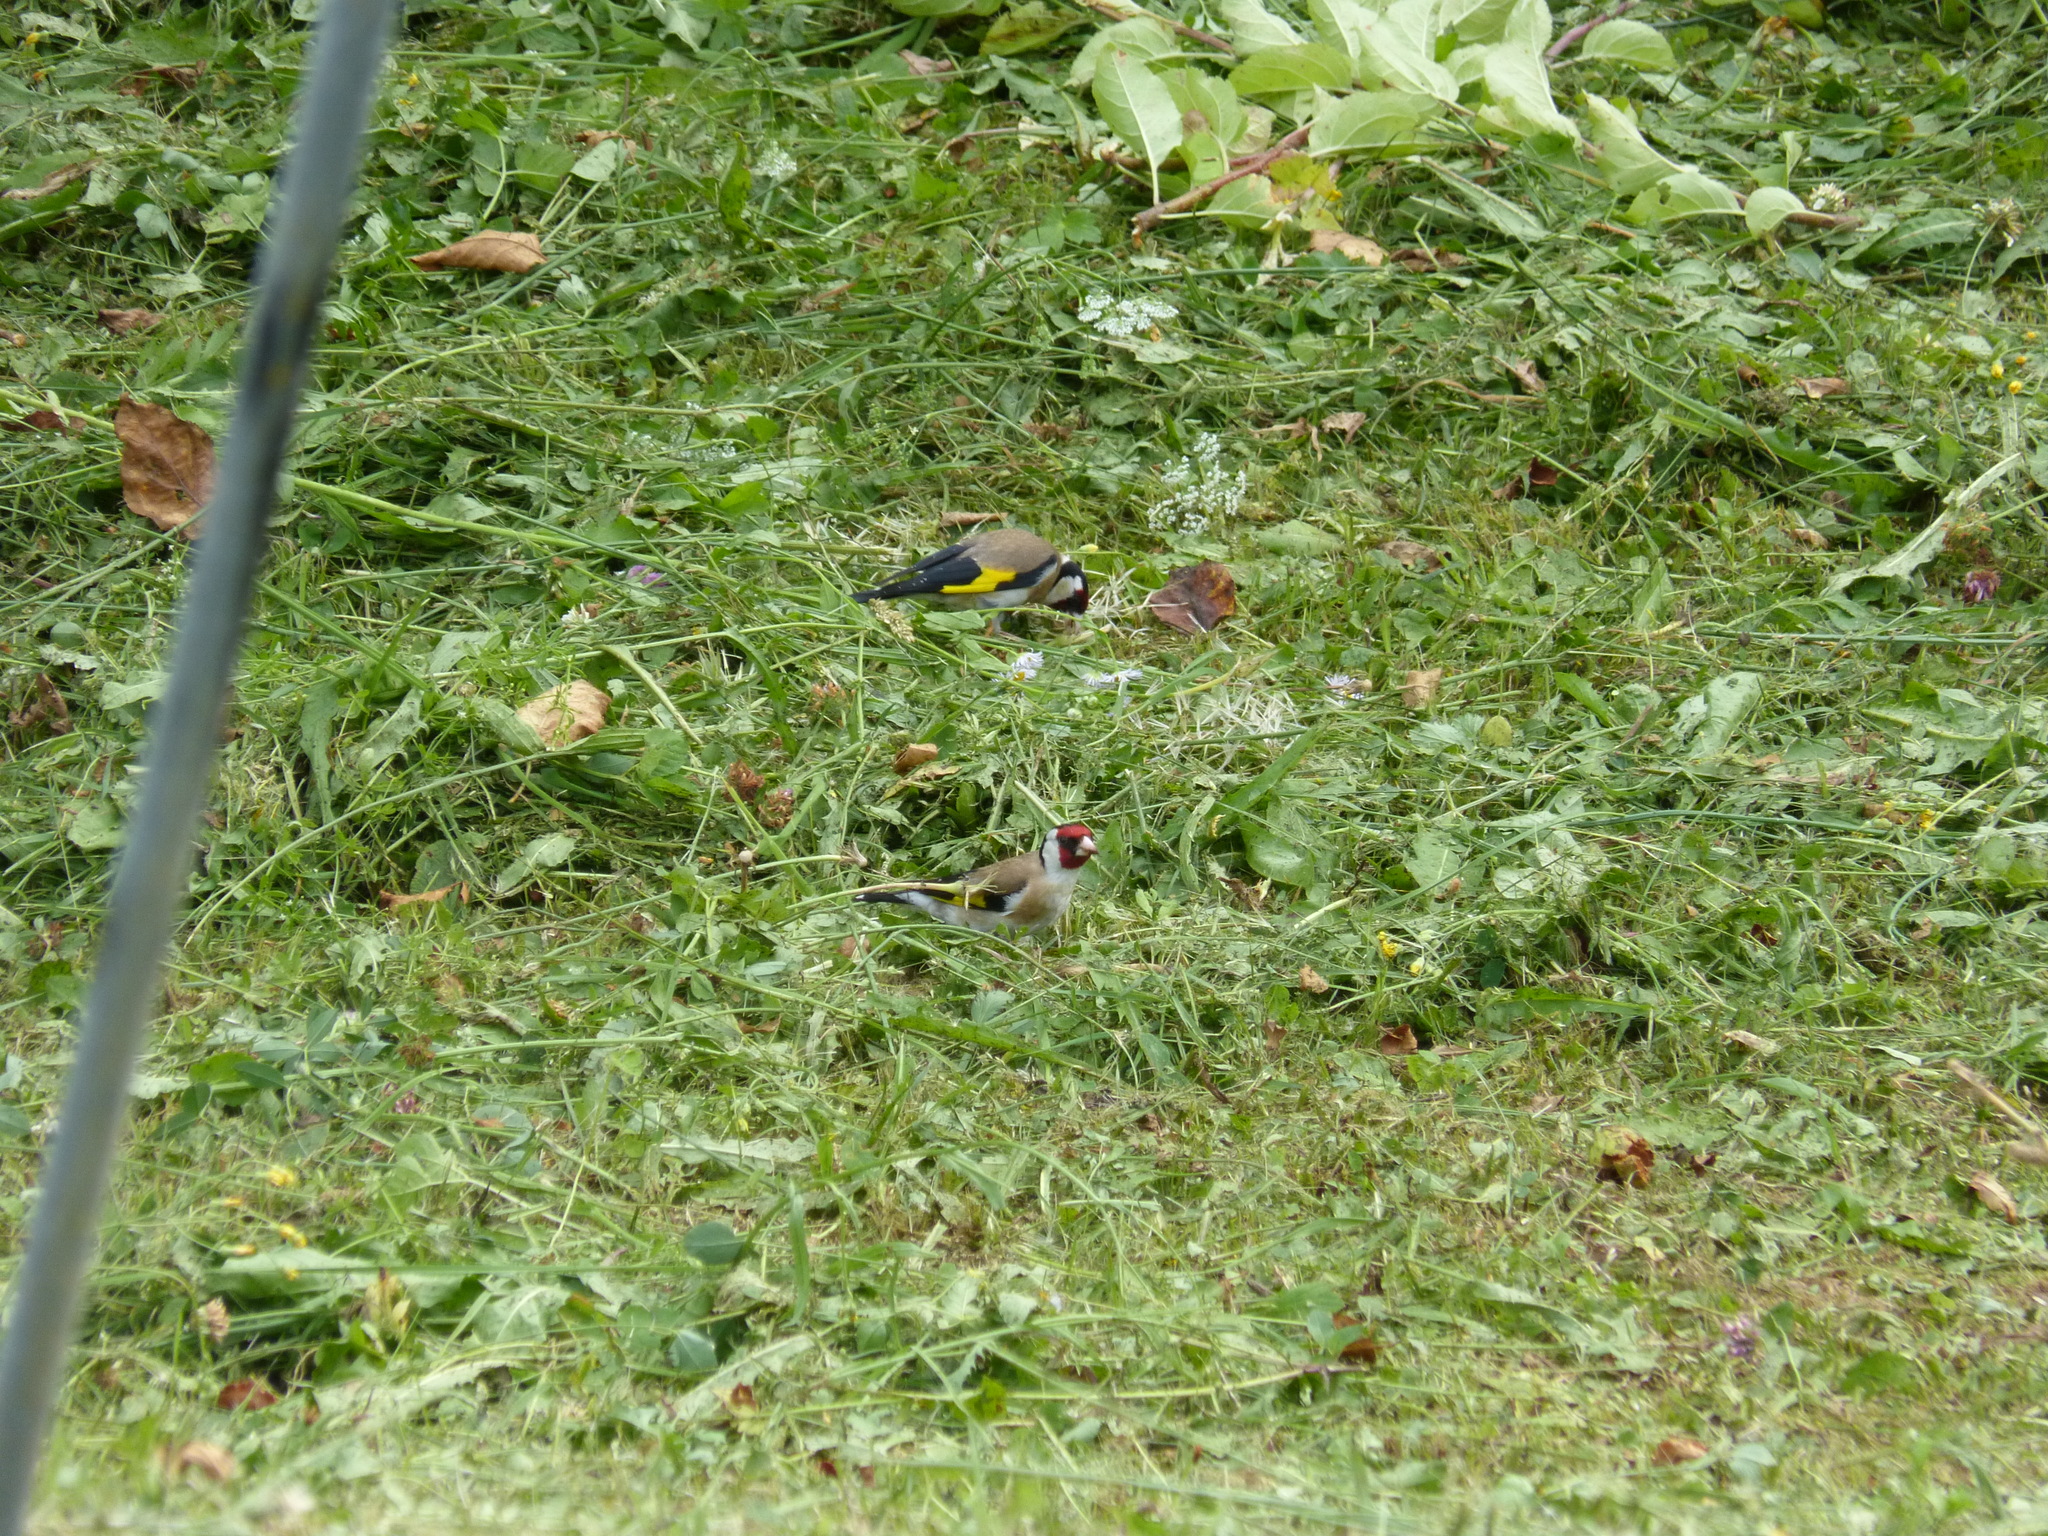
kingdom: Animalia
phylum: Chordata
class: Aves
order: Passeriformes
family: Fringillidae
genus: Carduelis
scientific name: Carduelis carduelis
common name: European goldfinch
